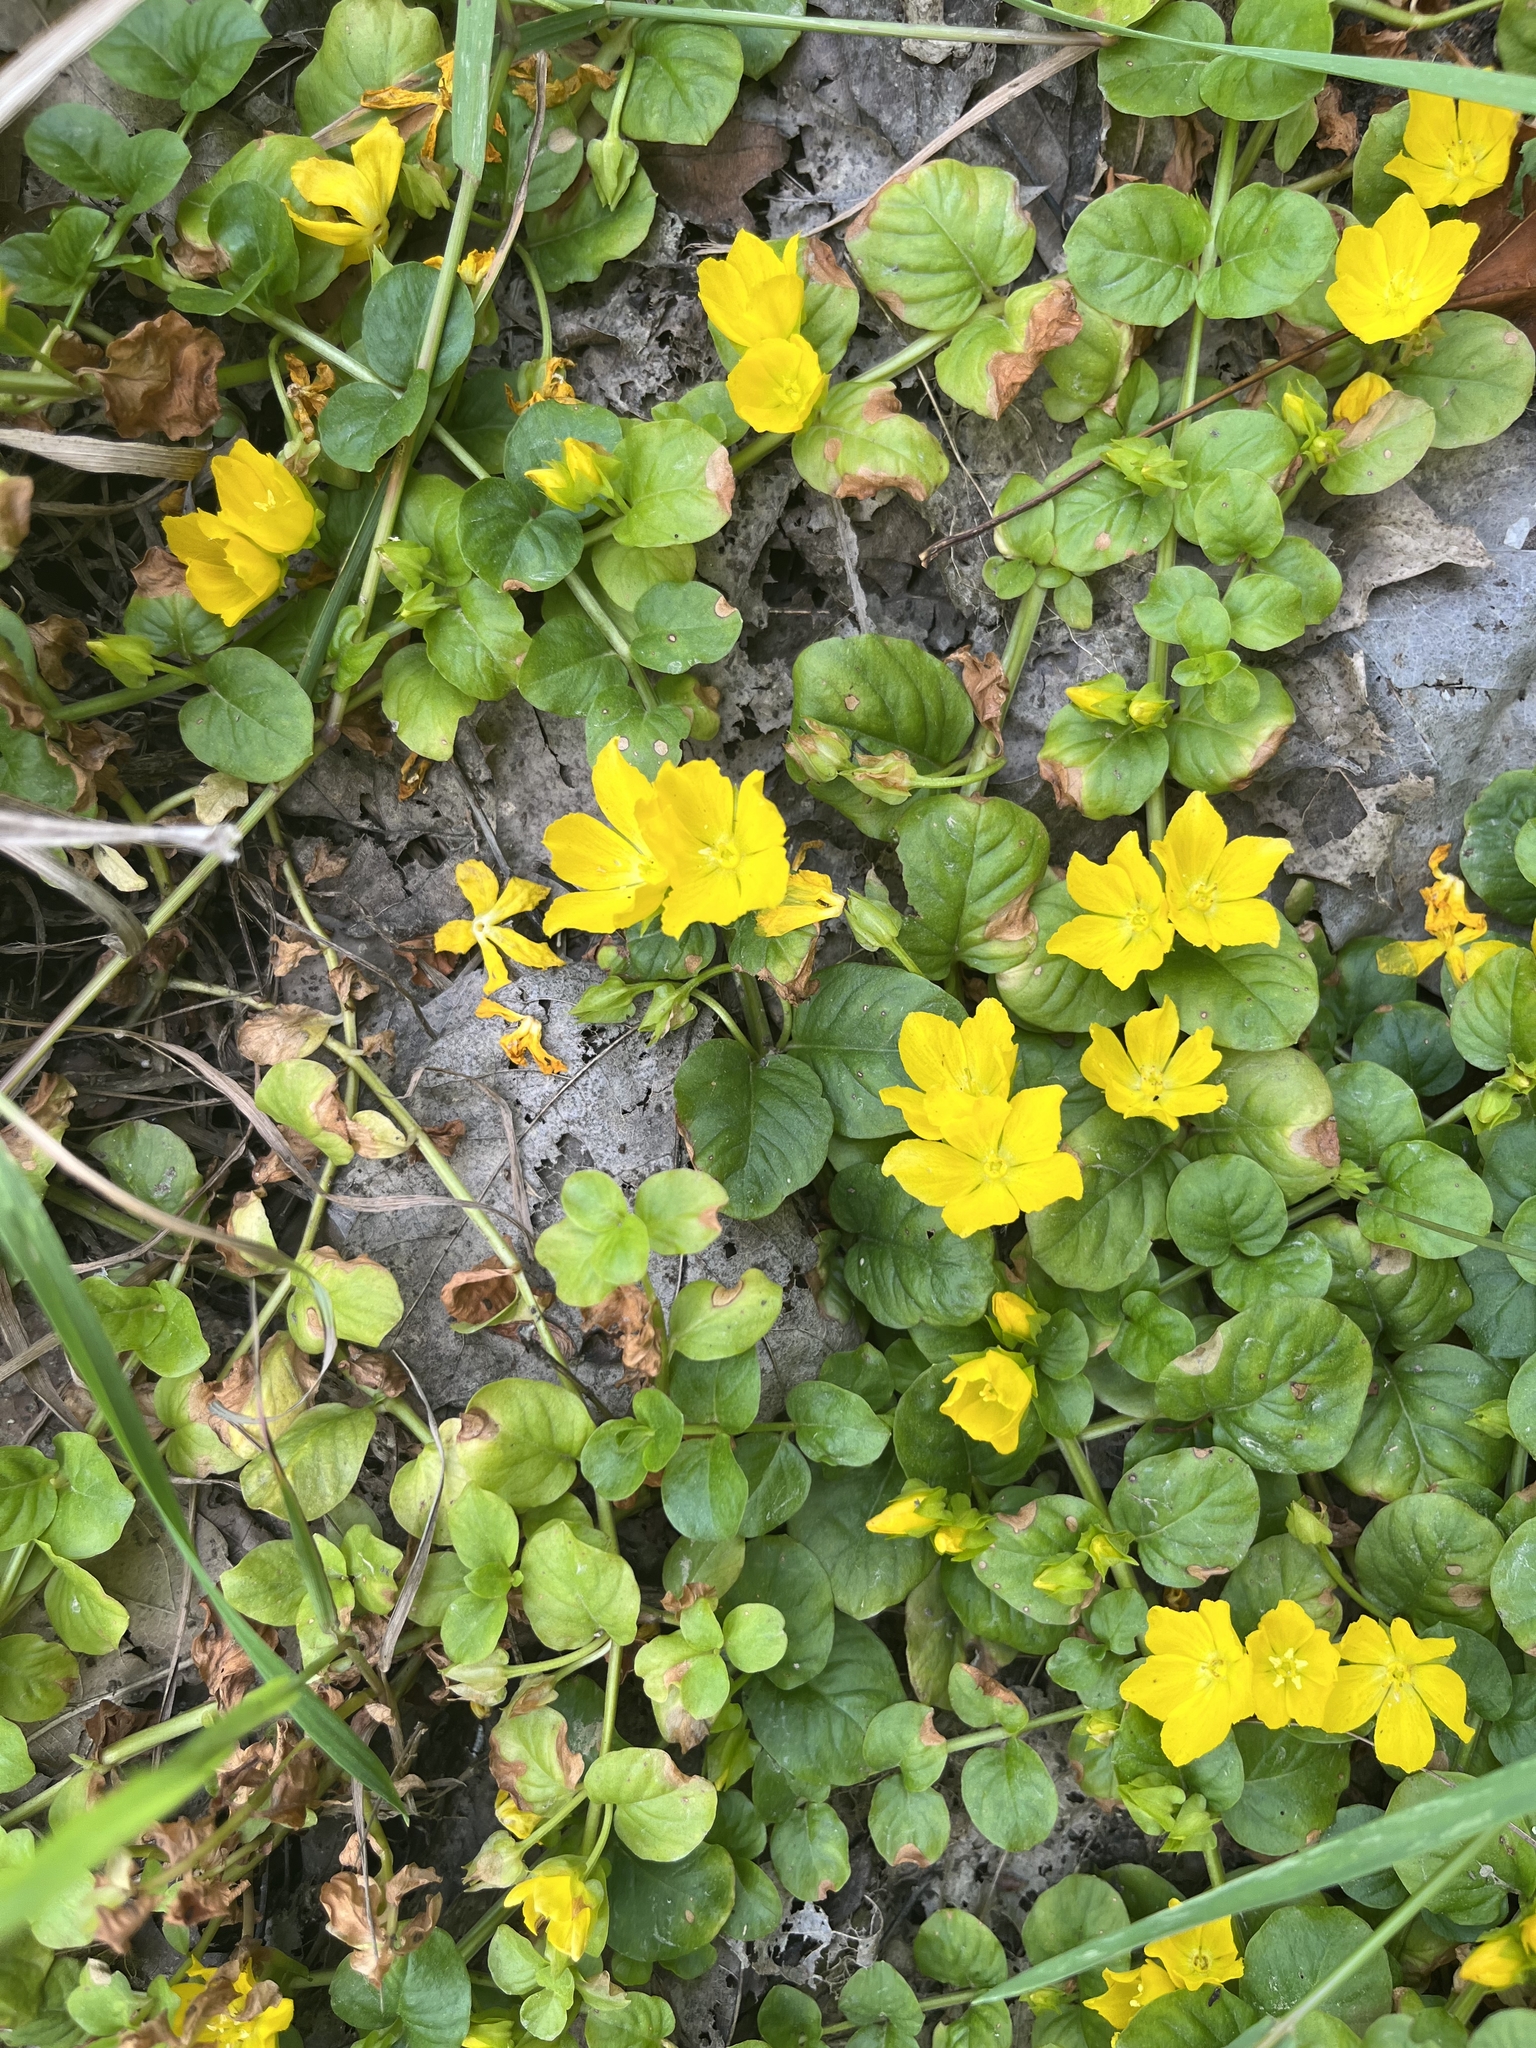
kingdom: Plantae
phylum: Tracheophyta
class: Magnoliopsida
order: Ericales
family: Primulaceae
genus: Lysimachia
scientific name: Lysimachia nummularia
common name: Moneywort
